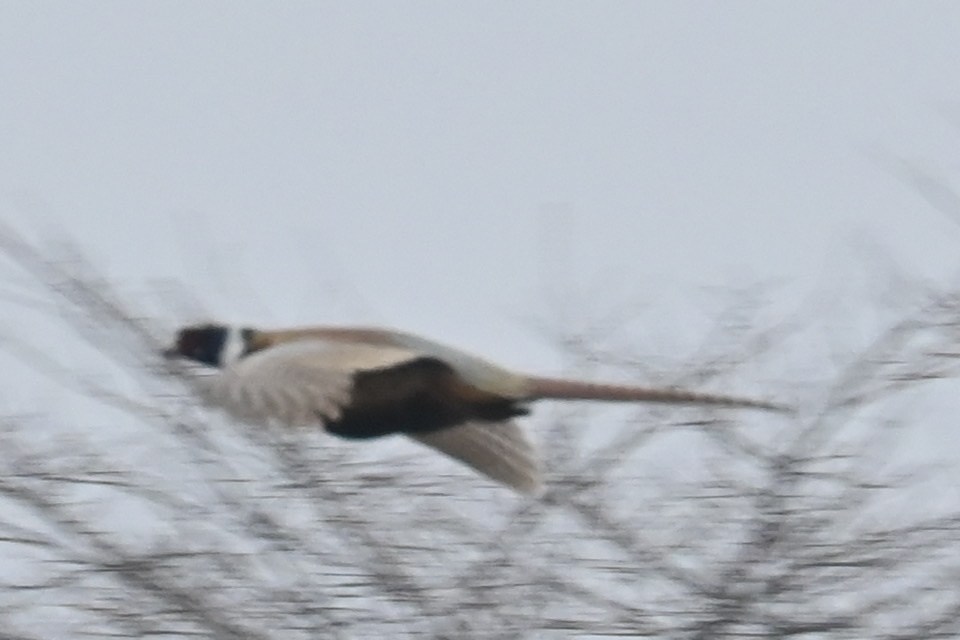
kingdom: Animalia
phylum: Chordata
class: Aves
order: Galliformes
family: Phasianidae
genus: Phasianus
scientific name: Phasianus colchicus
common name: Common pheasant
